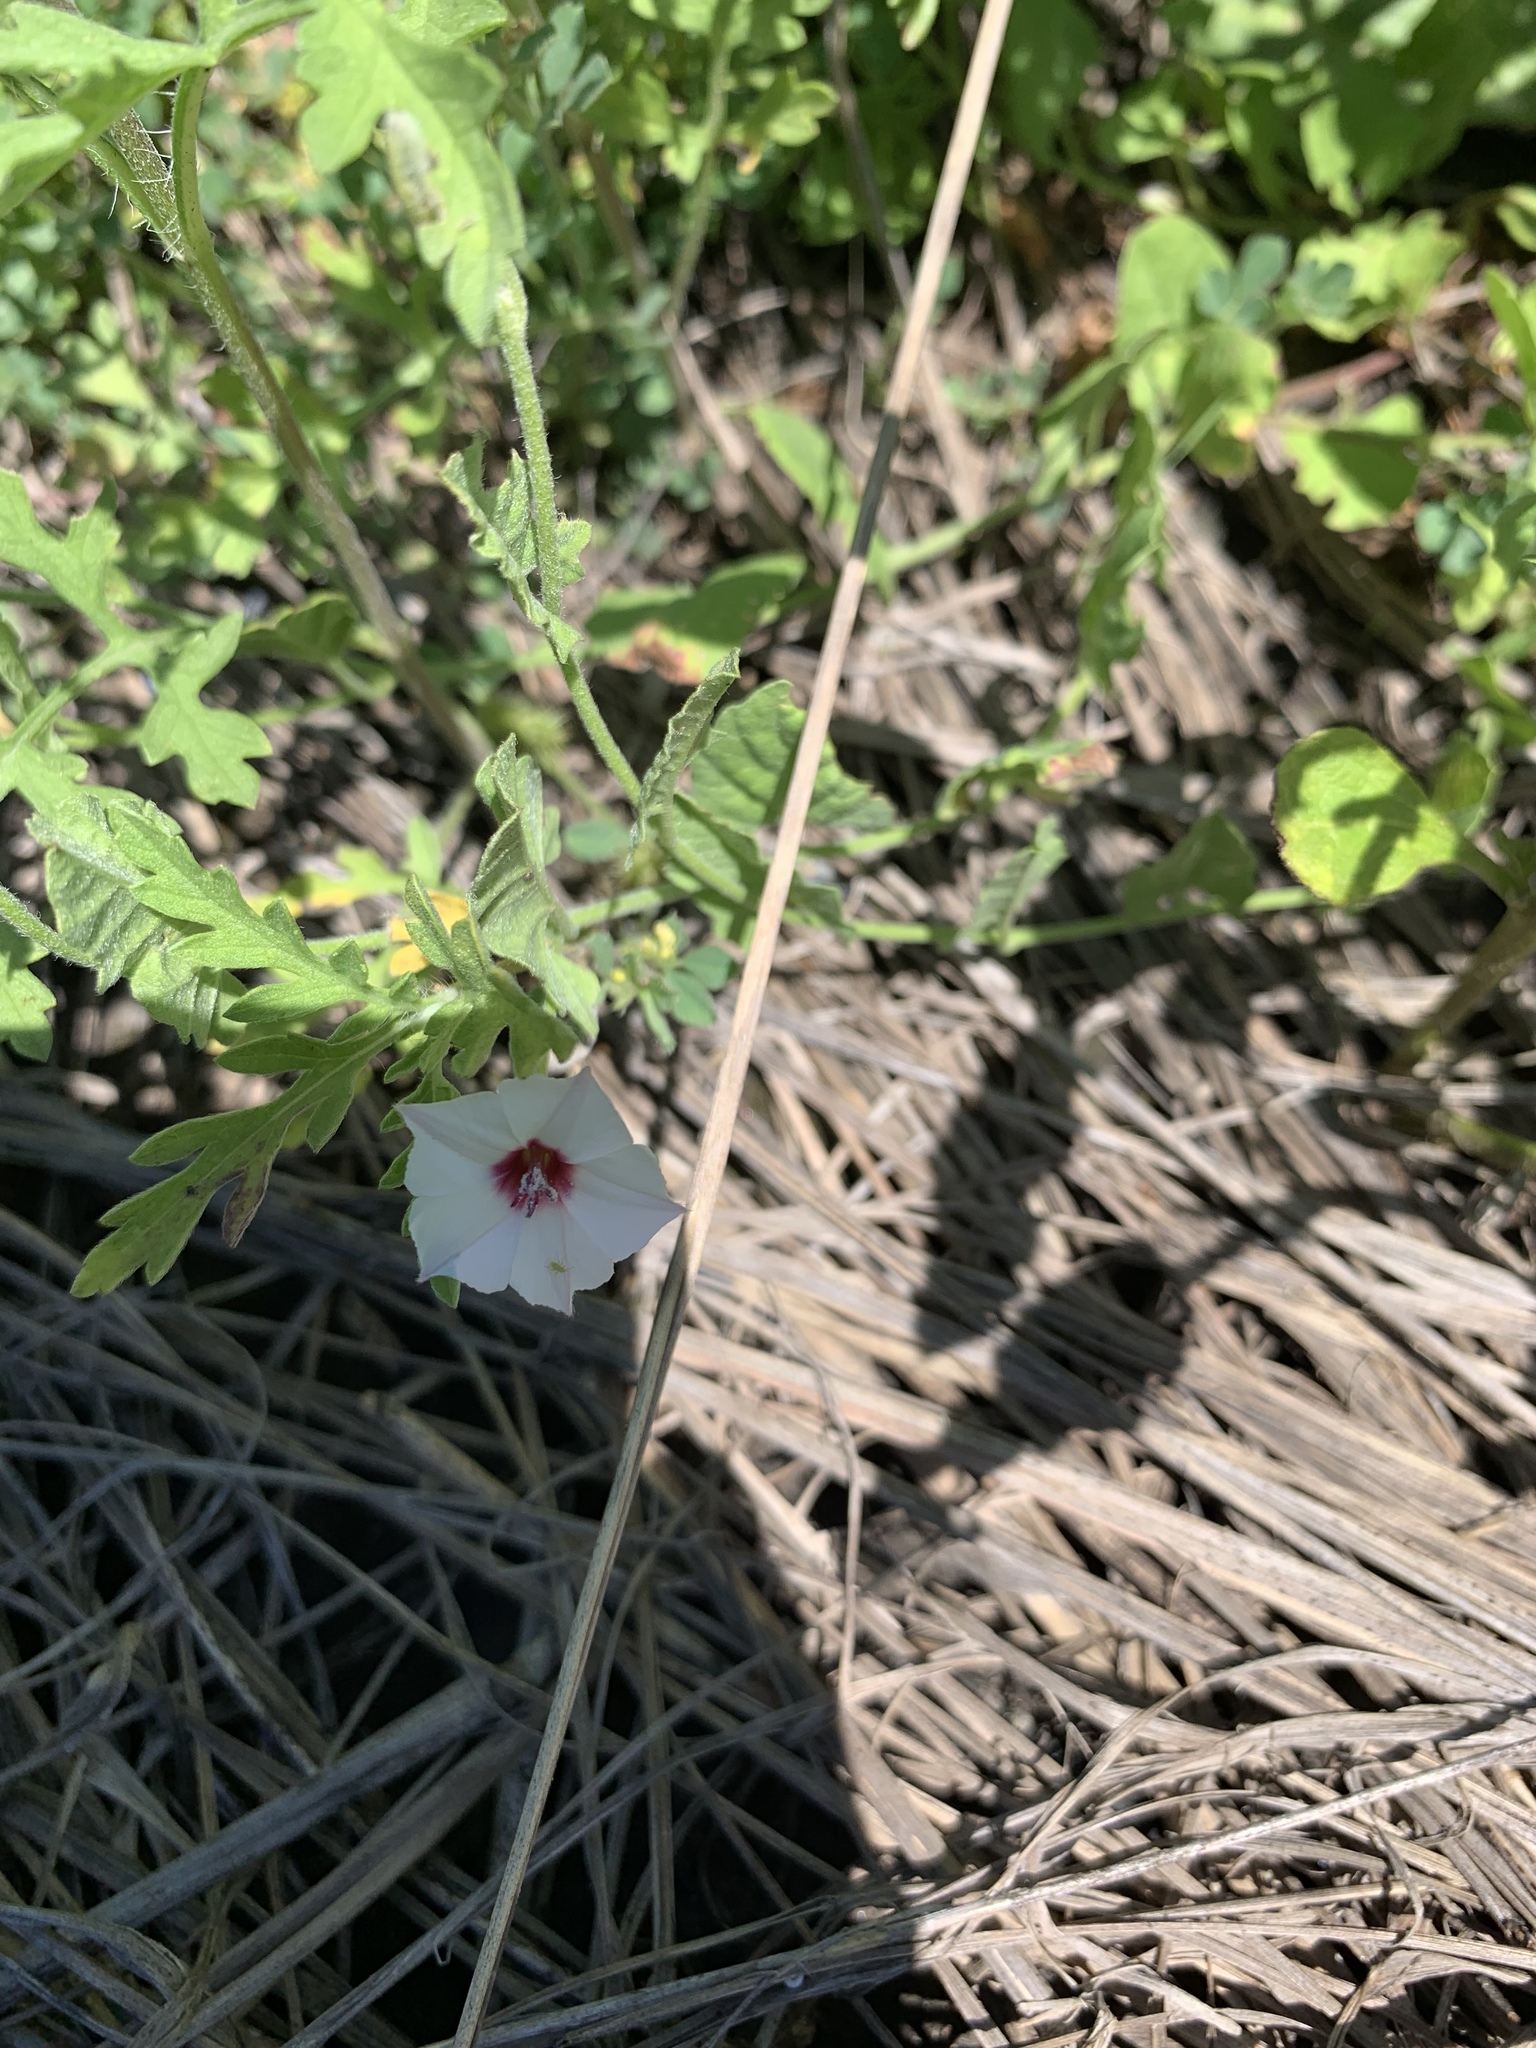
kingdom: Plantae
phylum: Tracheophyta
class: Magnoliopsida
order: Solanales
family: Convolvulaceae
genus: Convolvulus
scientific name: Convolvulus equitans
